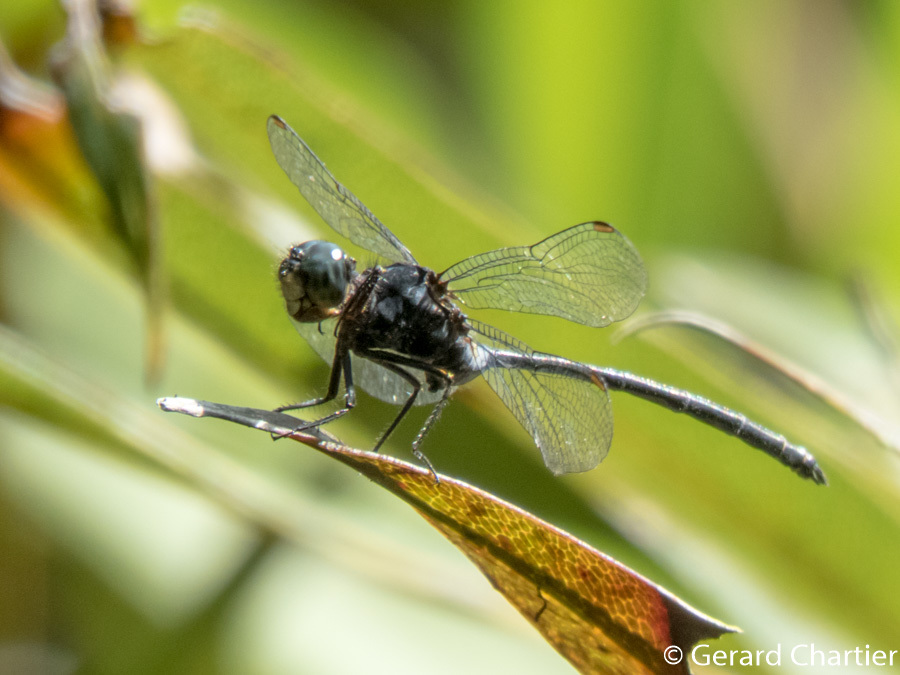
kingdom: Animalia
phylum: Arthropoda
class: Insecta
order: Odonata
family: Libellulidae
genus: Pornothemis
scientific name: Pornothemis starrei
